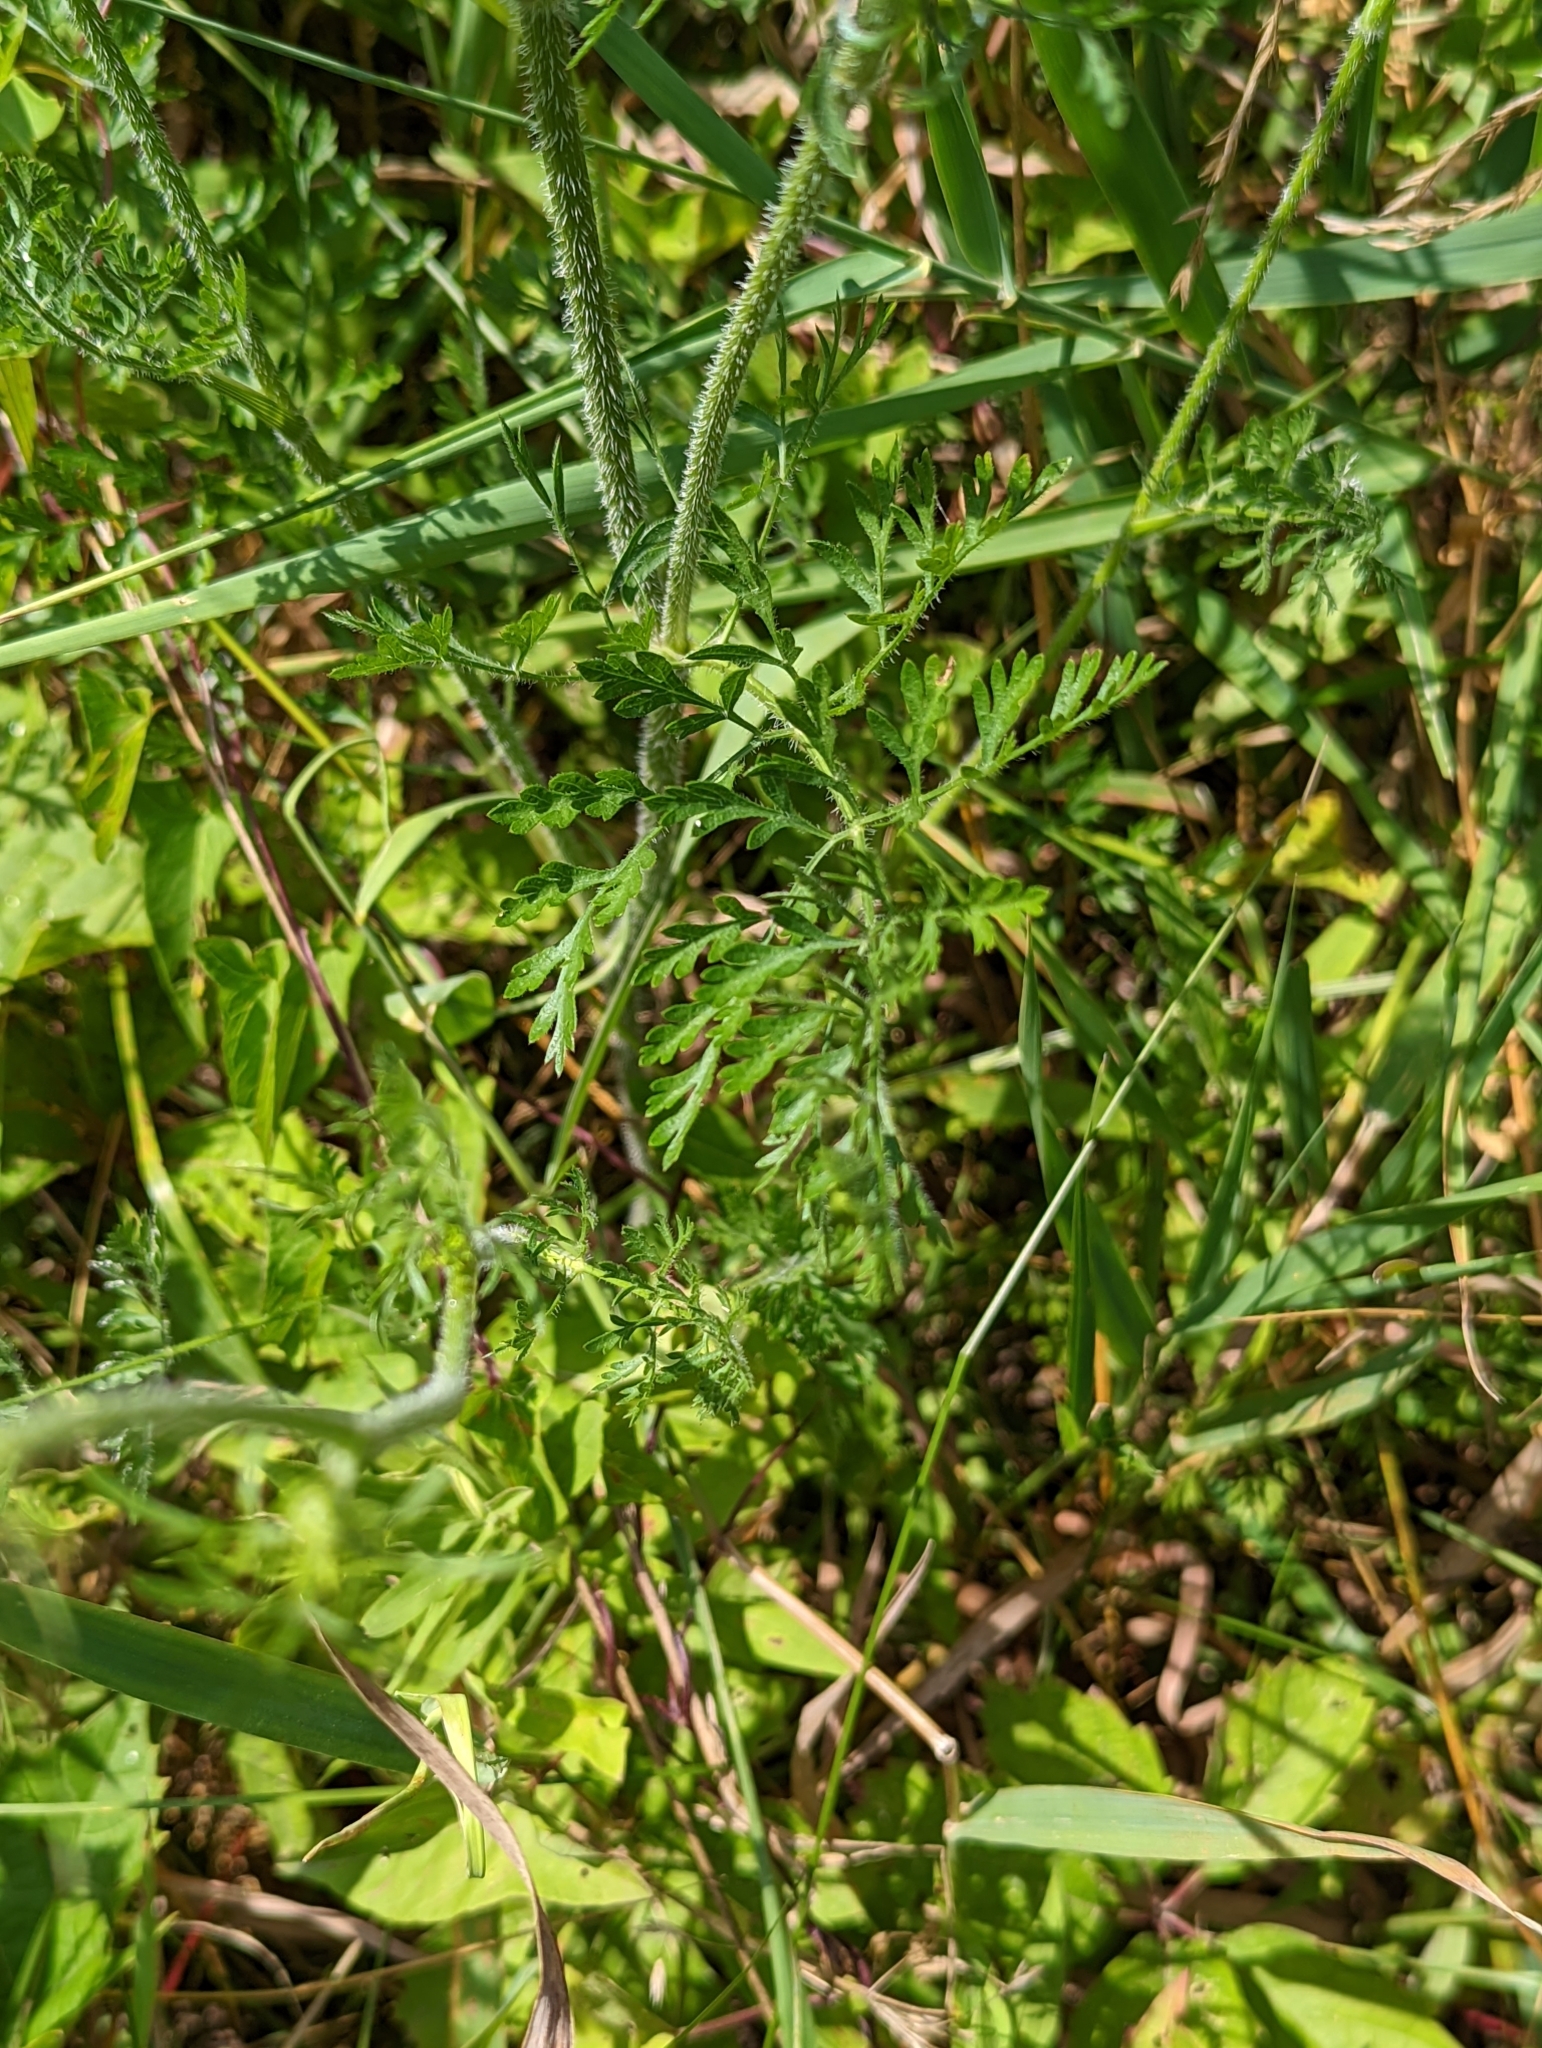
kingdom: Plantae
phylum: Tracheophyta
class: Magnoliopsida
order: Apiales
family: Apiaceae
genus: Daucus
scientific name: Daucus carota
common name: Wild carrot
